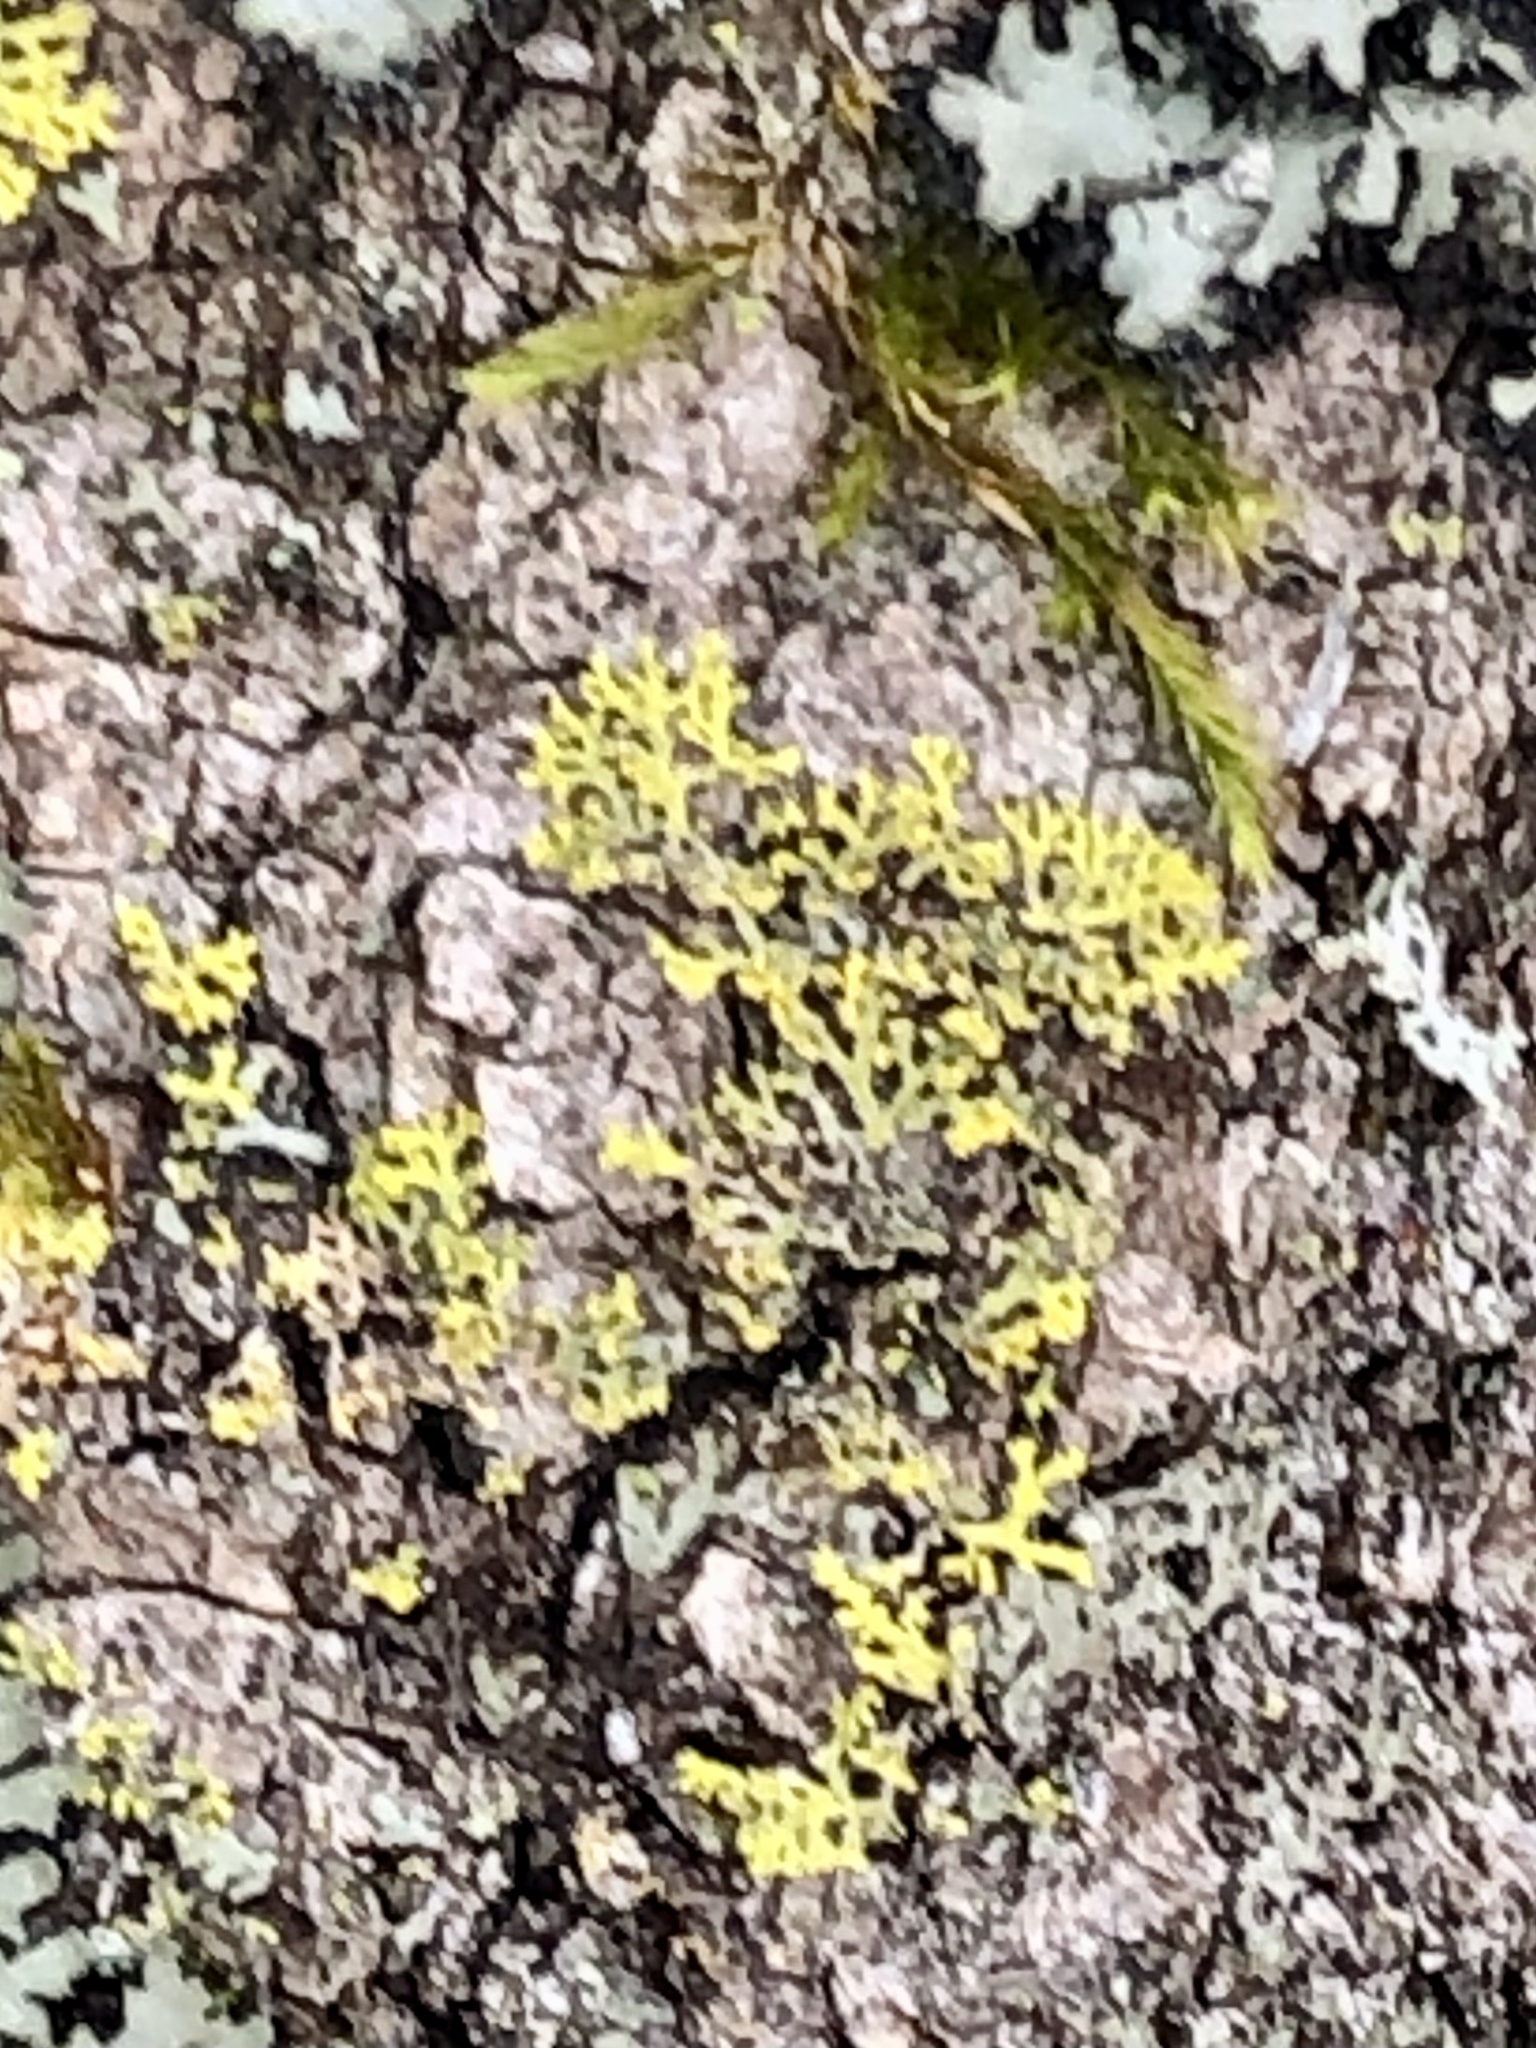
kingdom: Fungi
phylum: Ascomycota
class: Candelariomycetes
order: Candelariales
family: Candelariaceae
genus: Candelaria
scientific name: Candelaria concolor
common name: Candleflame lichen
